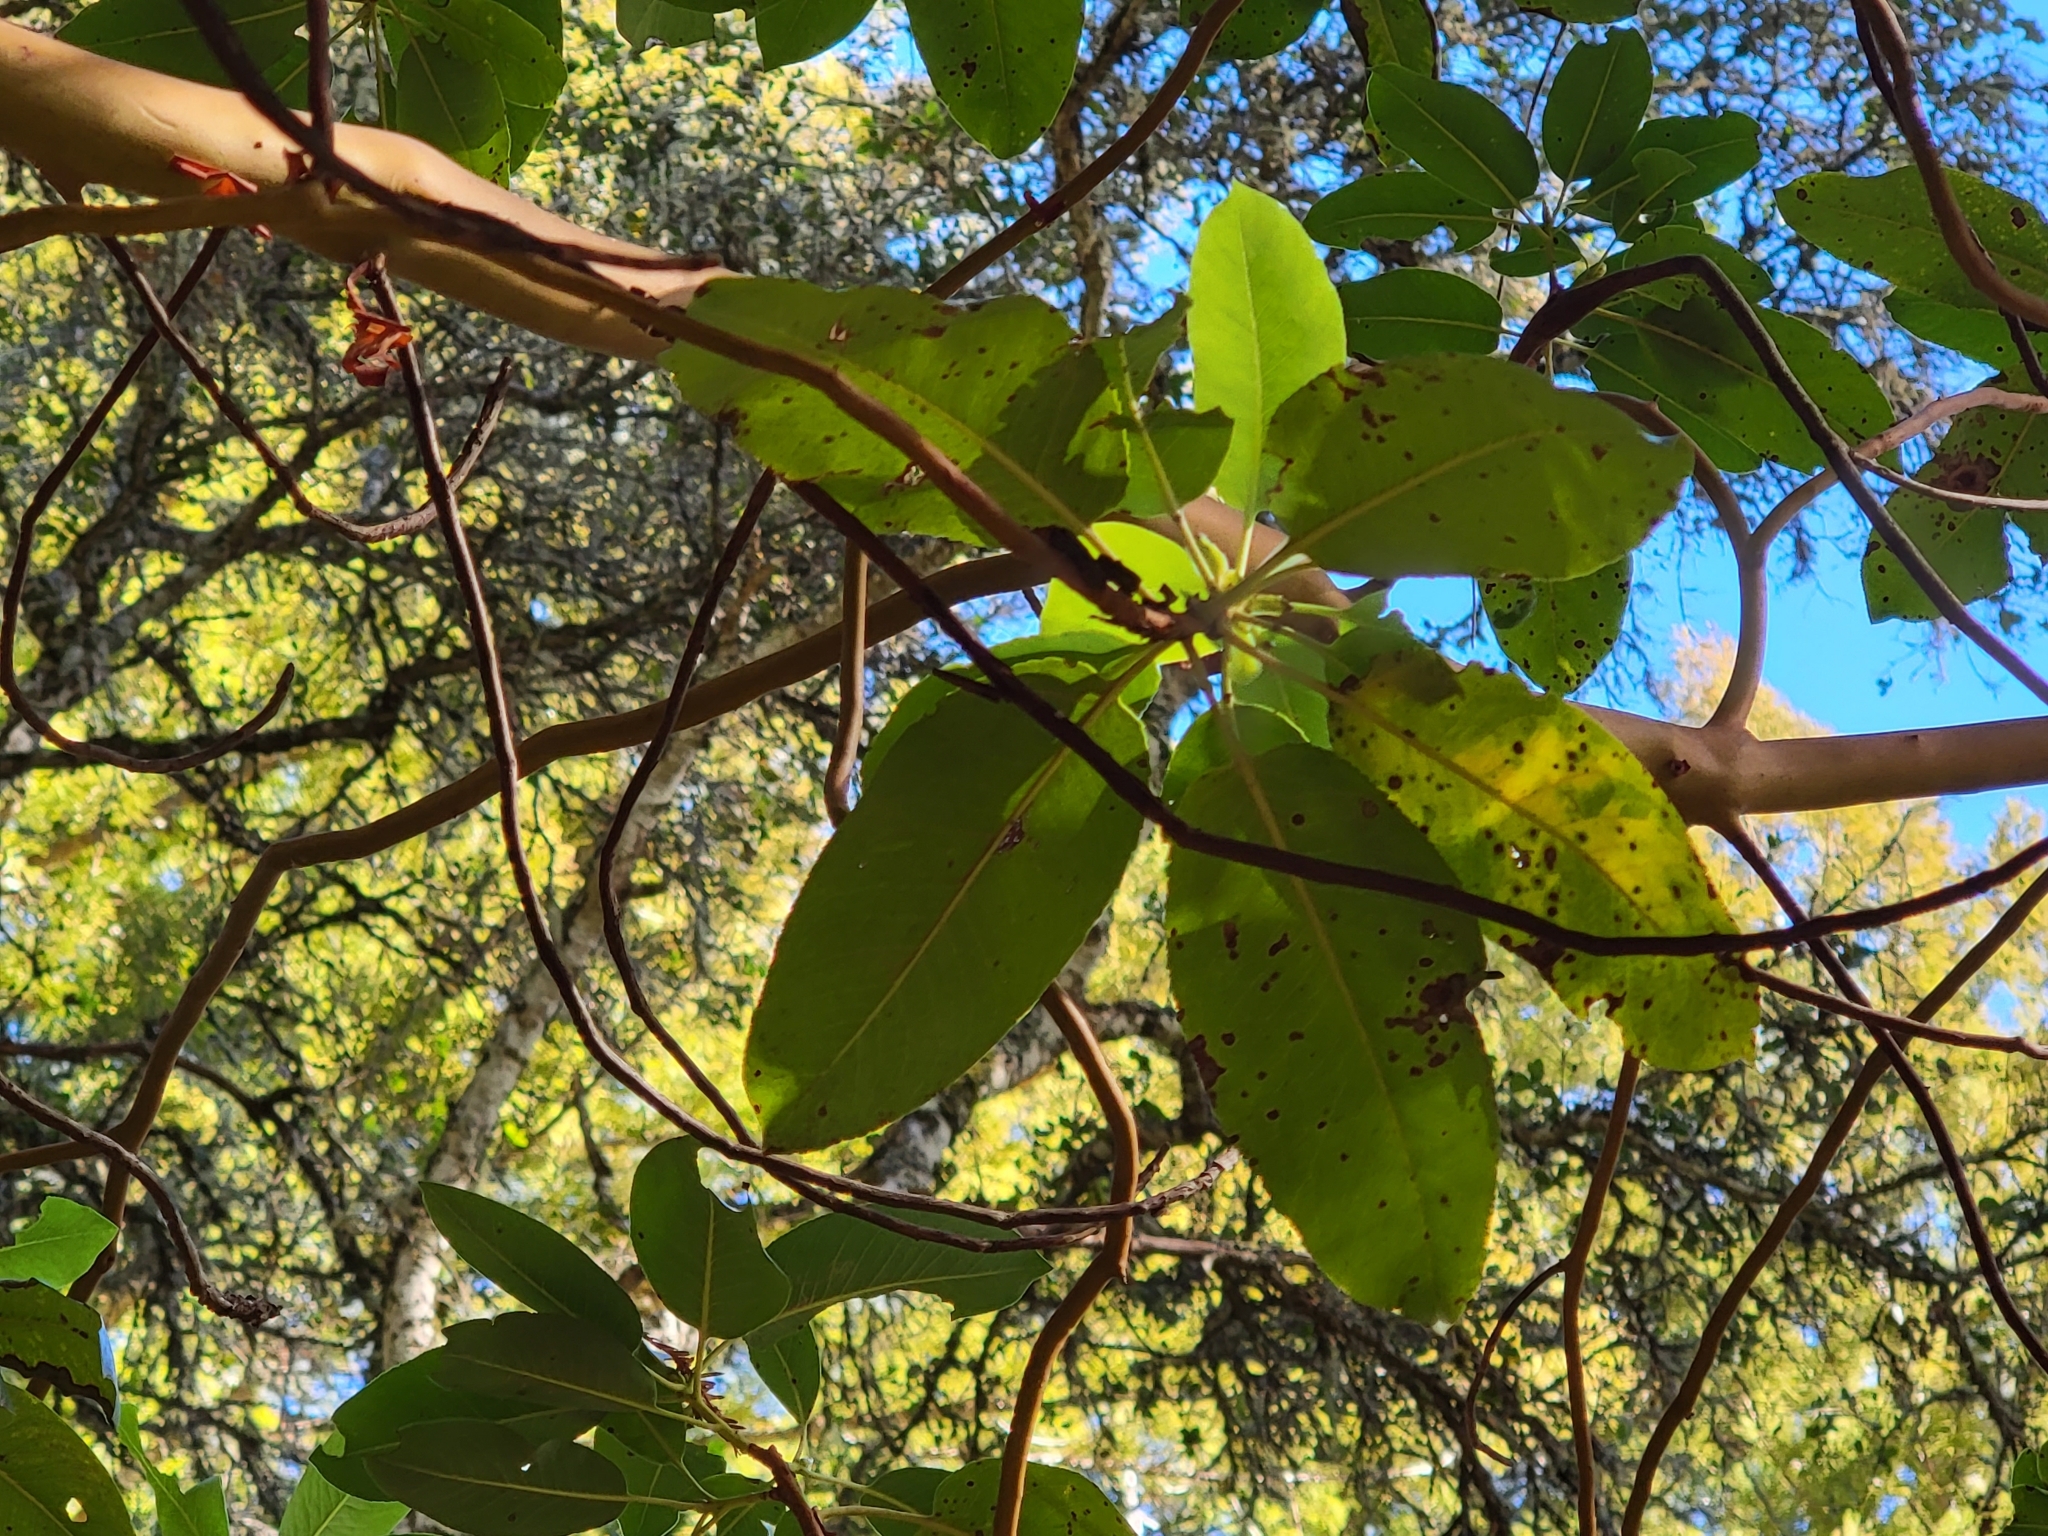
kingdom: Plantae
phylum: Tracheophyta
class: Magnoliopsida
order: Ericales
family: Ericaceae
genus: Arbutus
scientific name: Arbutus menziesii
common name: Pacific madrone
